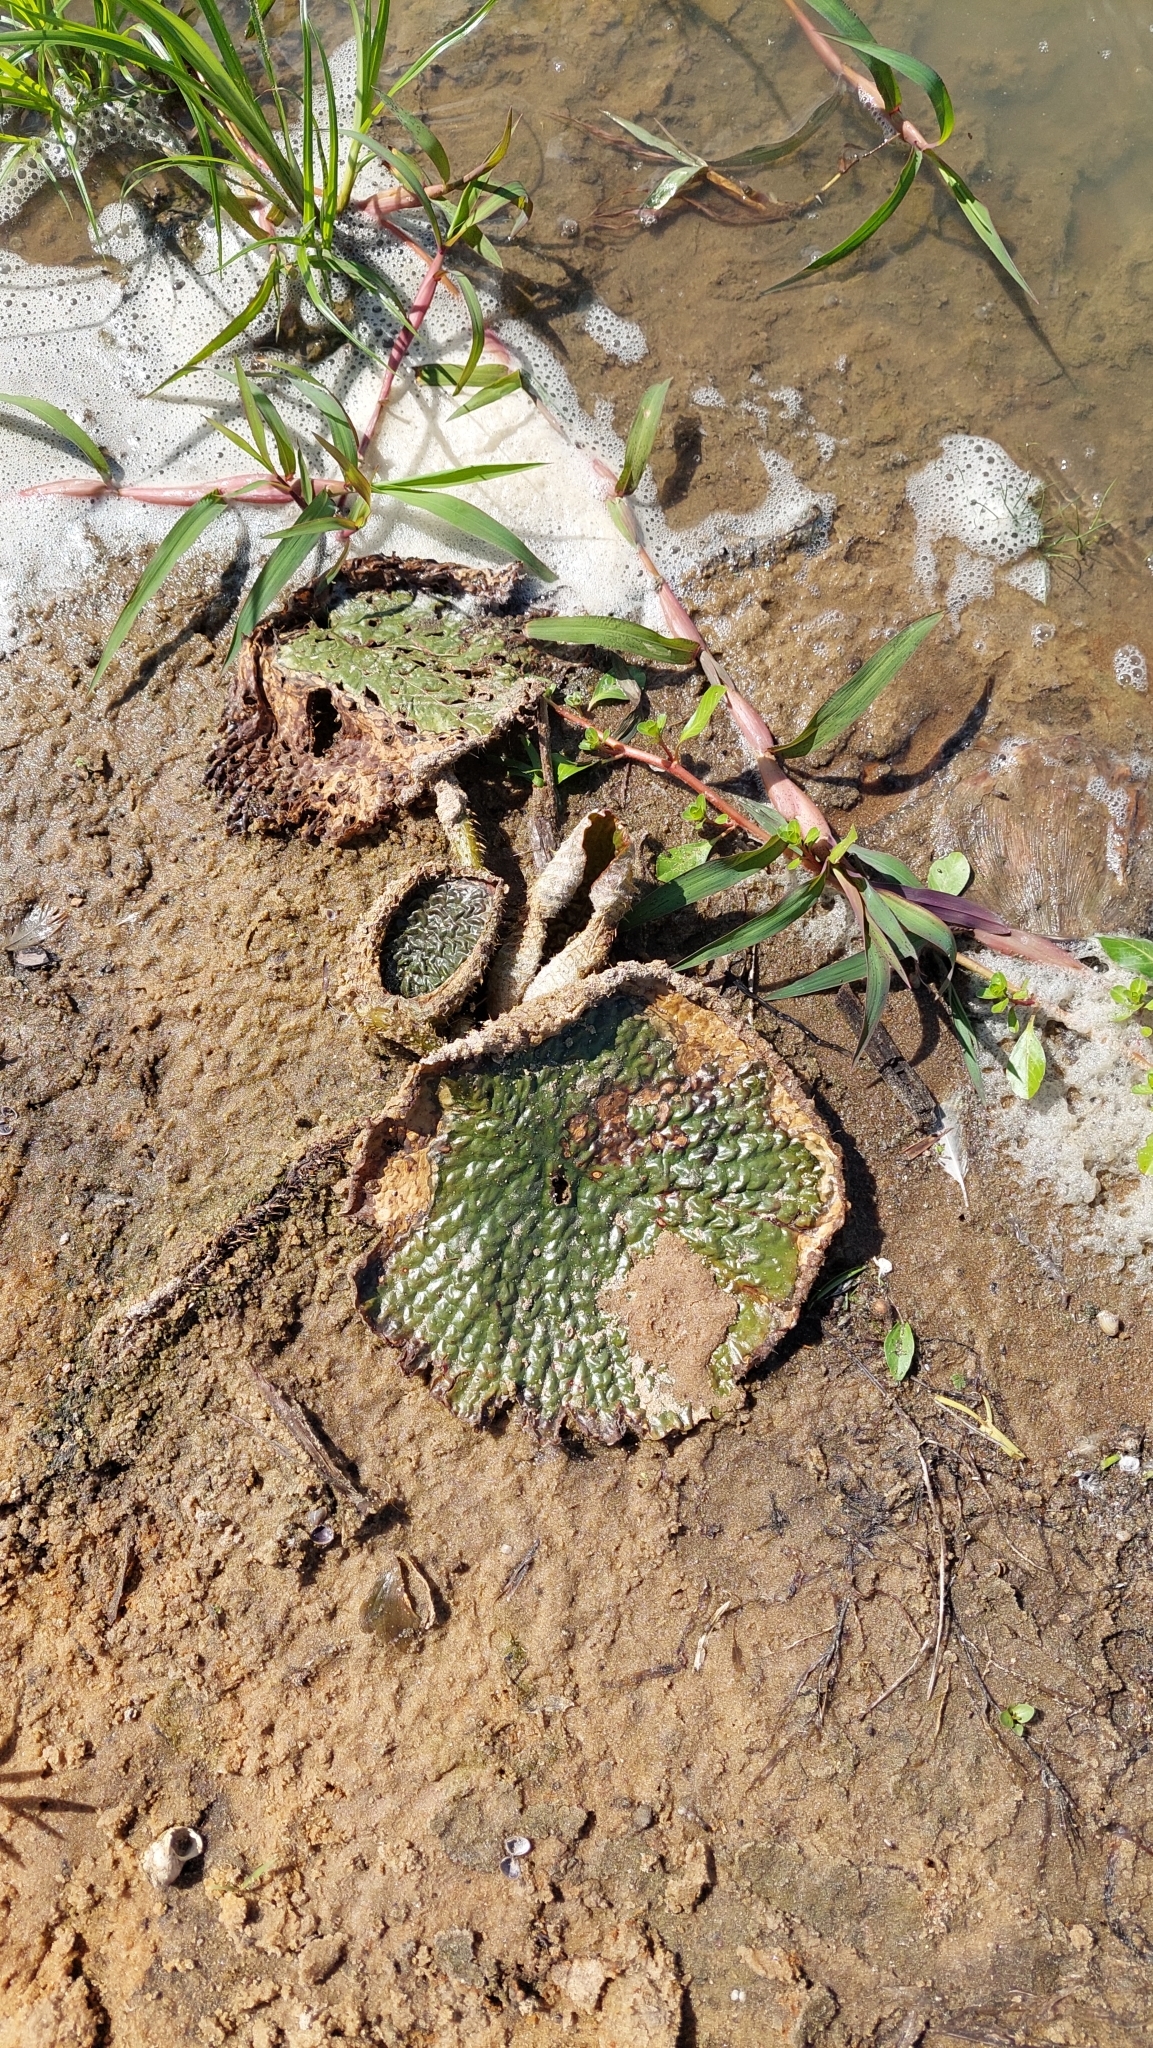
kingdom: Plantae
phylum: Tracheophyta
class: Magnoliopsida
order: Nymphaeales
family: Nymphaeaceae
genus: Victoria
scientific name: Victoria cruziana
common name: Santa cruz water-lily
